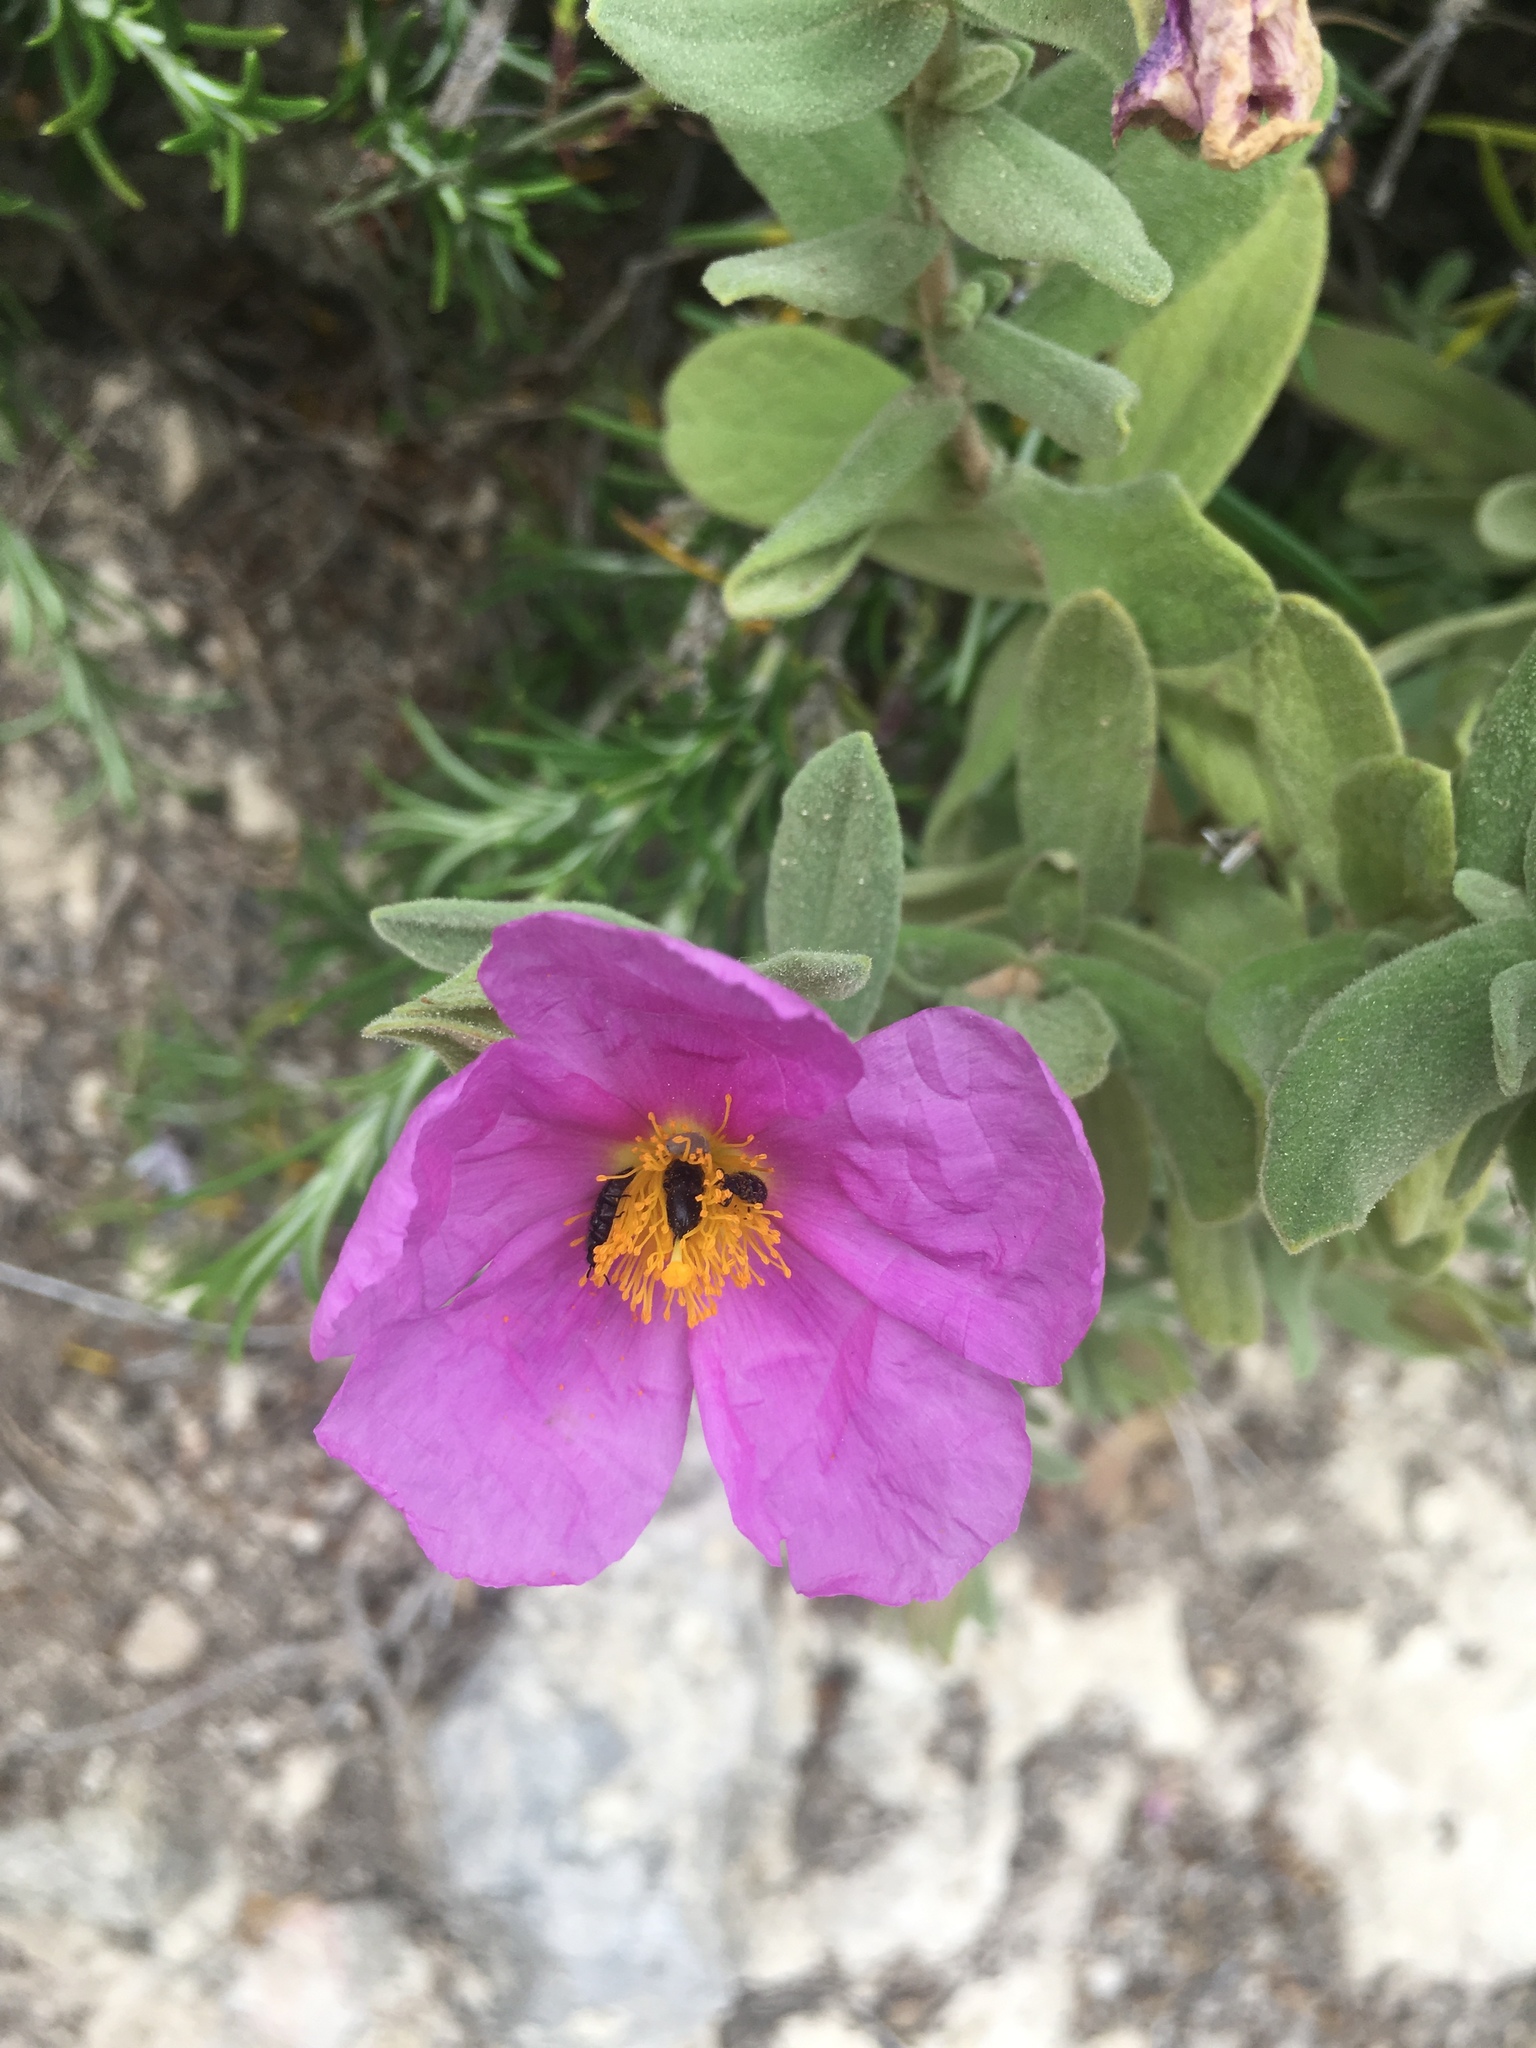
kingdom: Plantae
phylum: Tracheophyta
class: Magnoliopsida
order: Malvales
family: Cistaceae
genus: Cistus
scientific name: Cistus albidus
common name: White-leaf rock-rose
